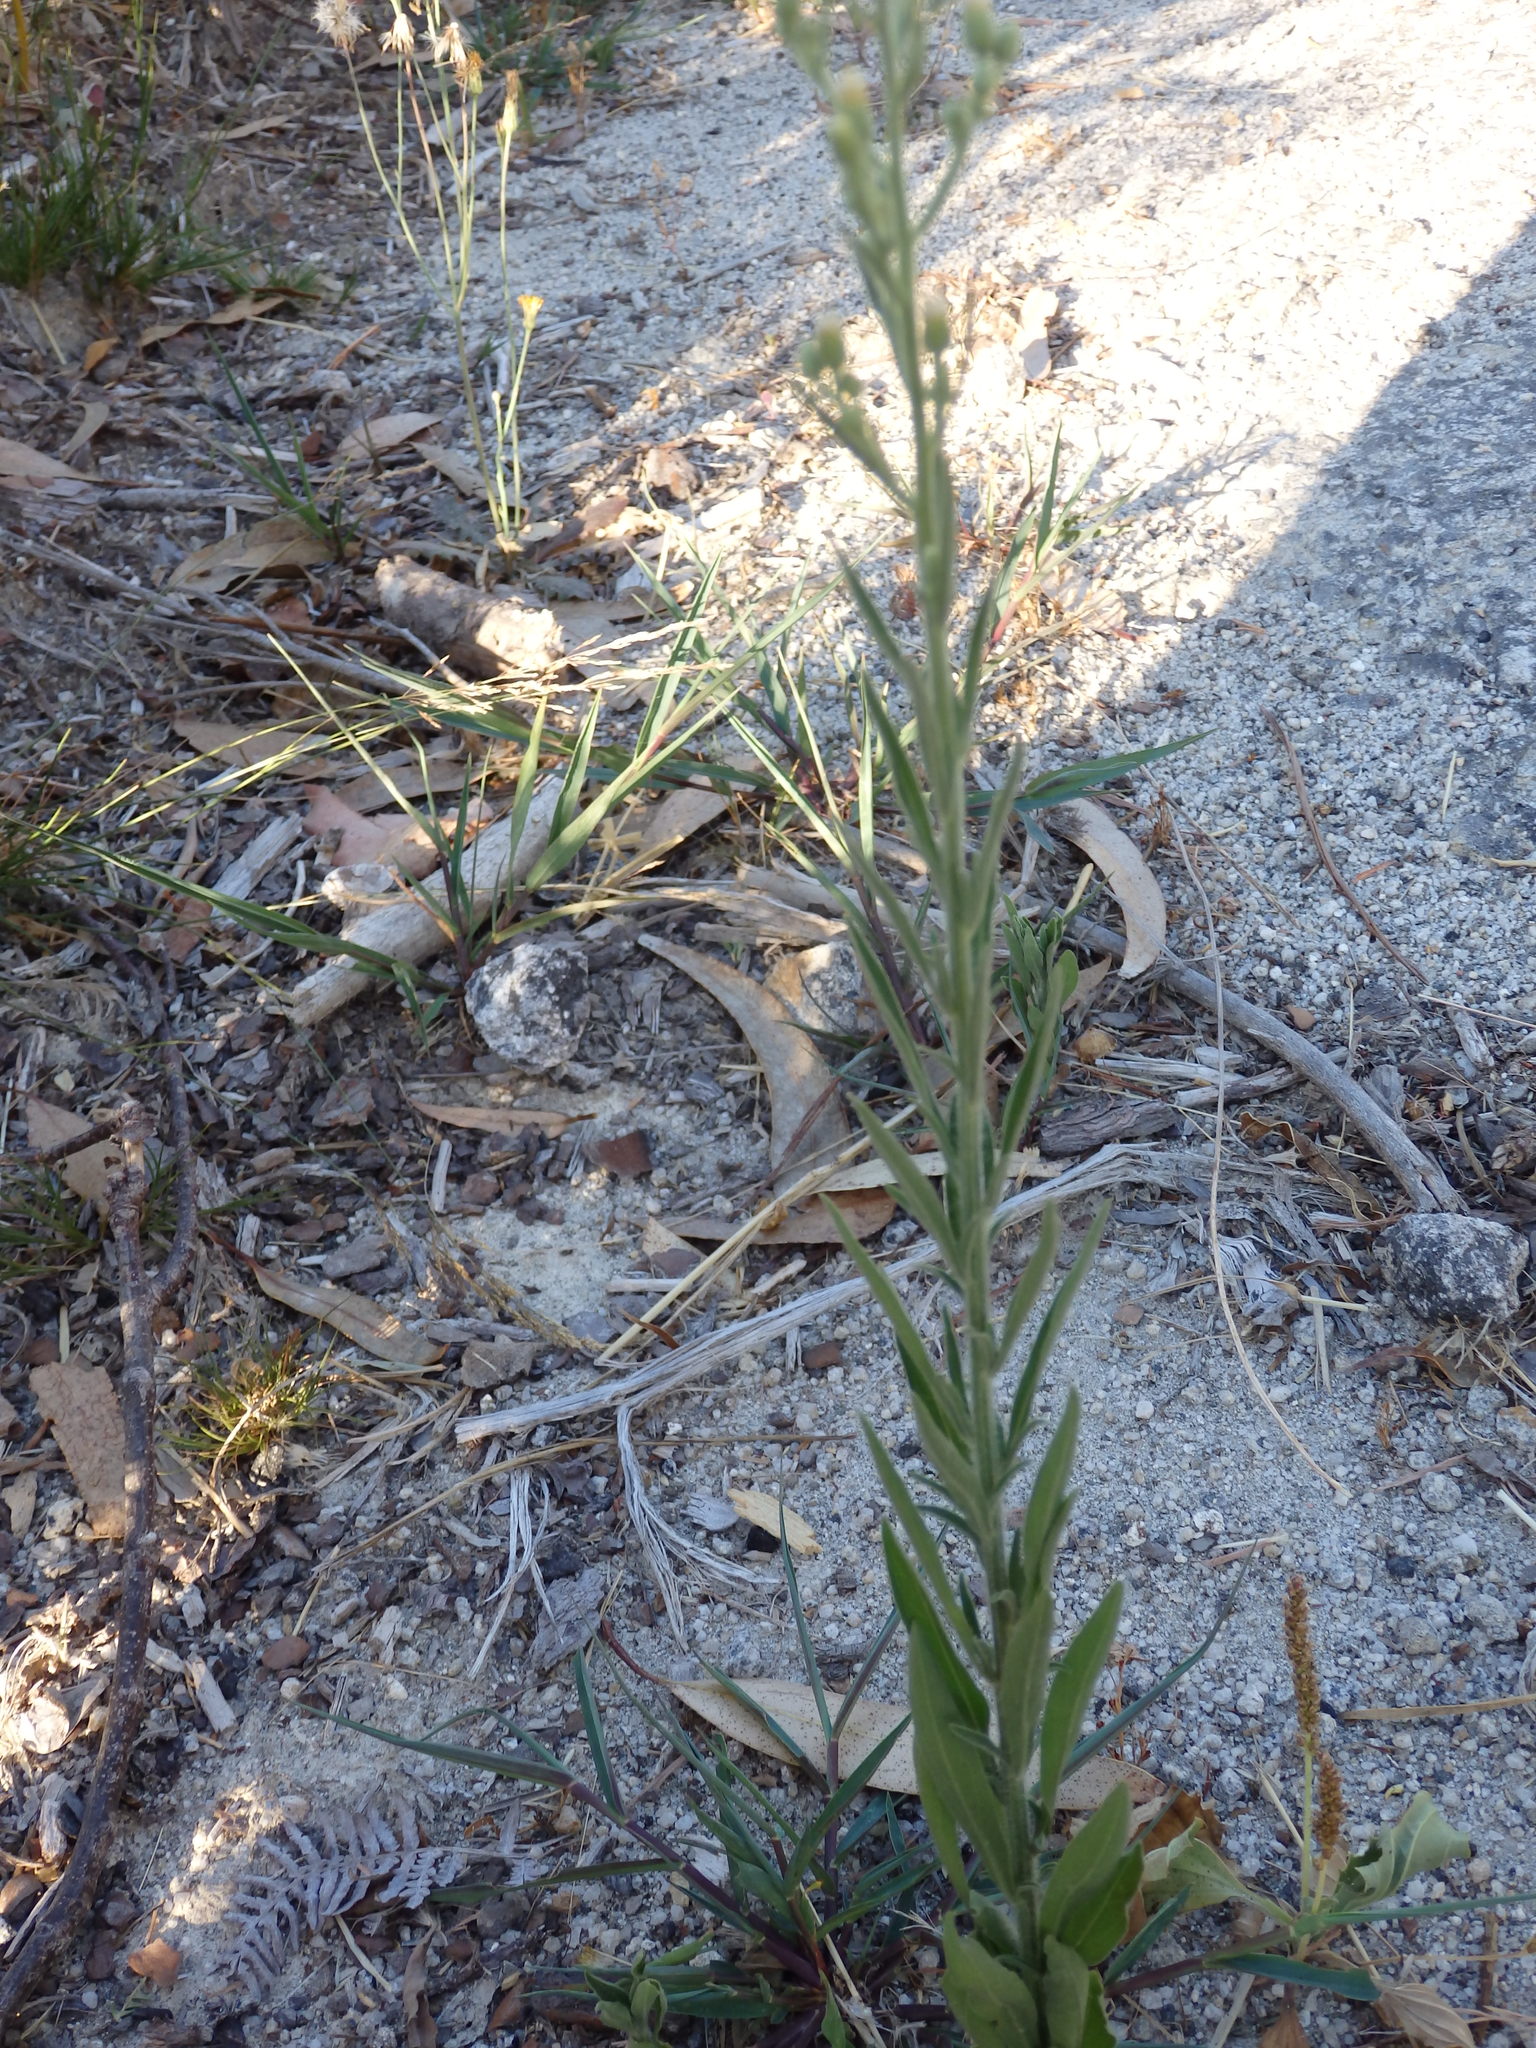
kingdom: Plantae
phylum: Tracheophyta
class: Magnoliopsida
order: Asterales
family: Asteraceae
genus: Erigeron
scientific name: Erigeron bonariensis
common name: Argentine fleabane
